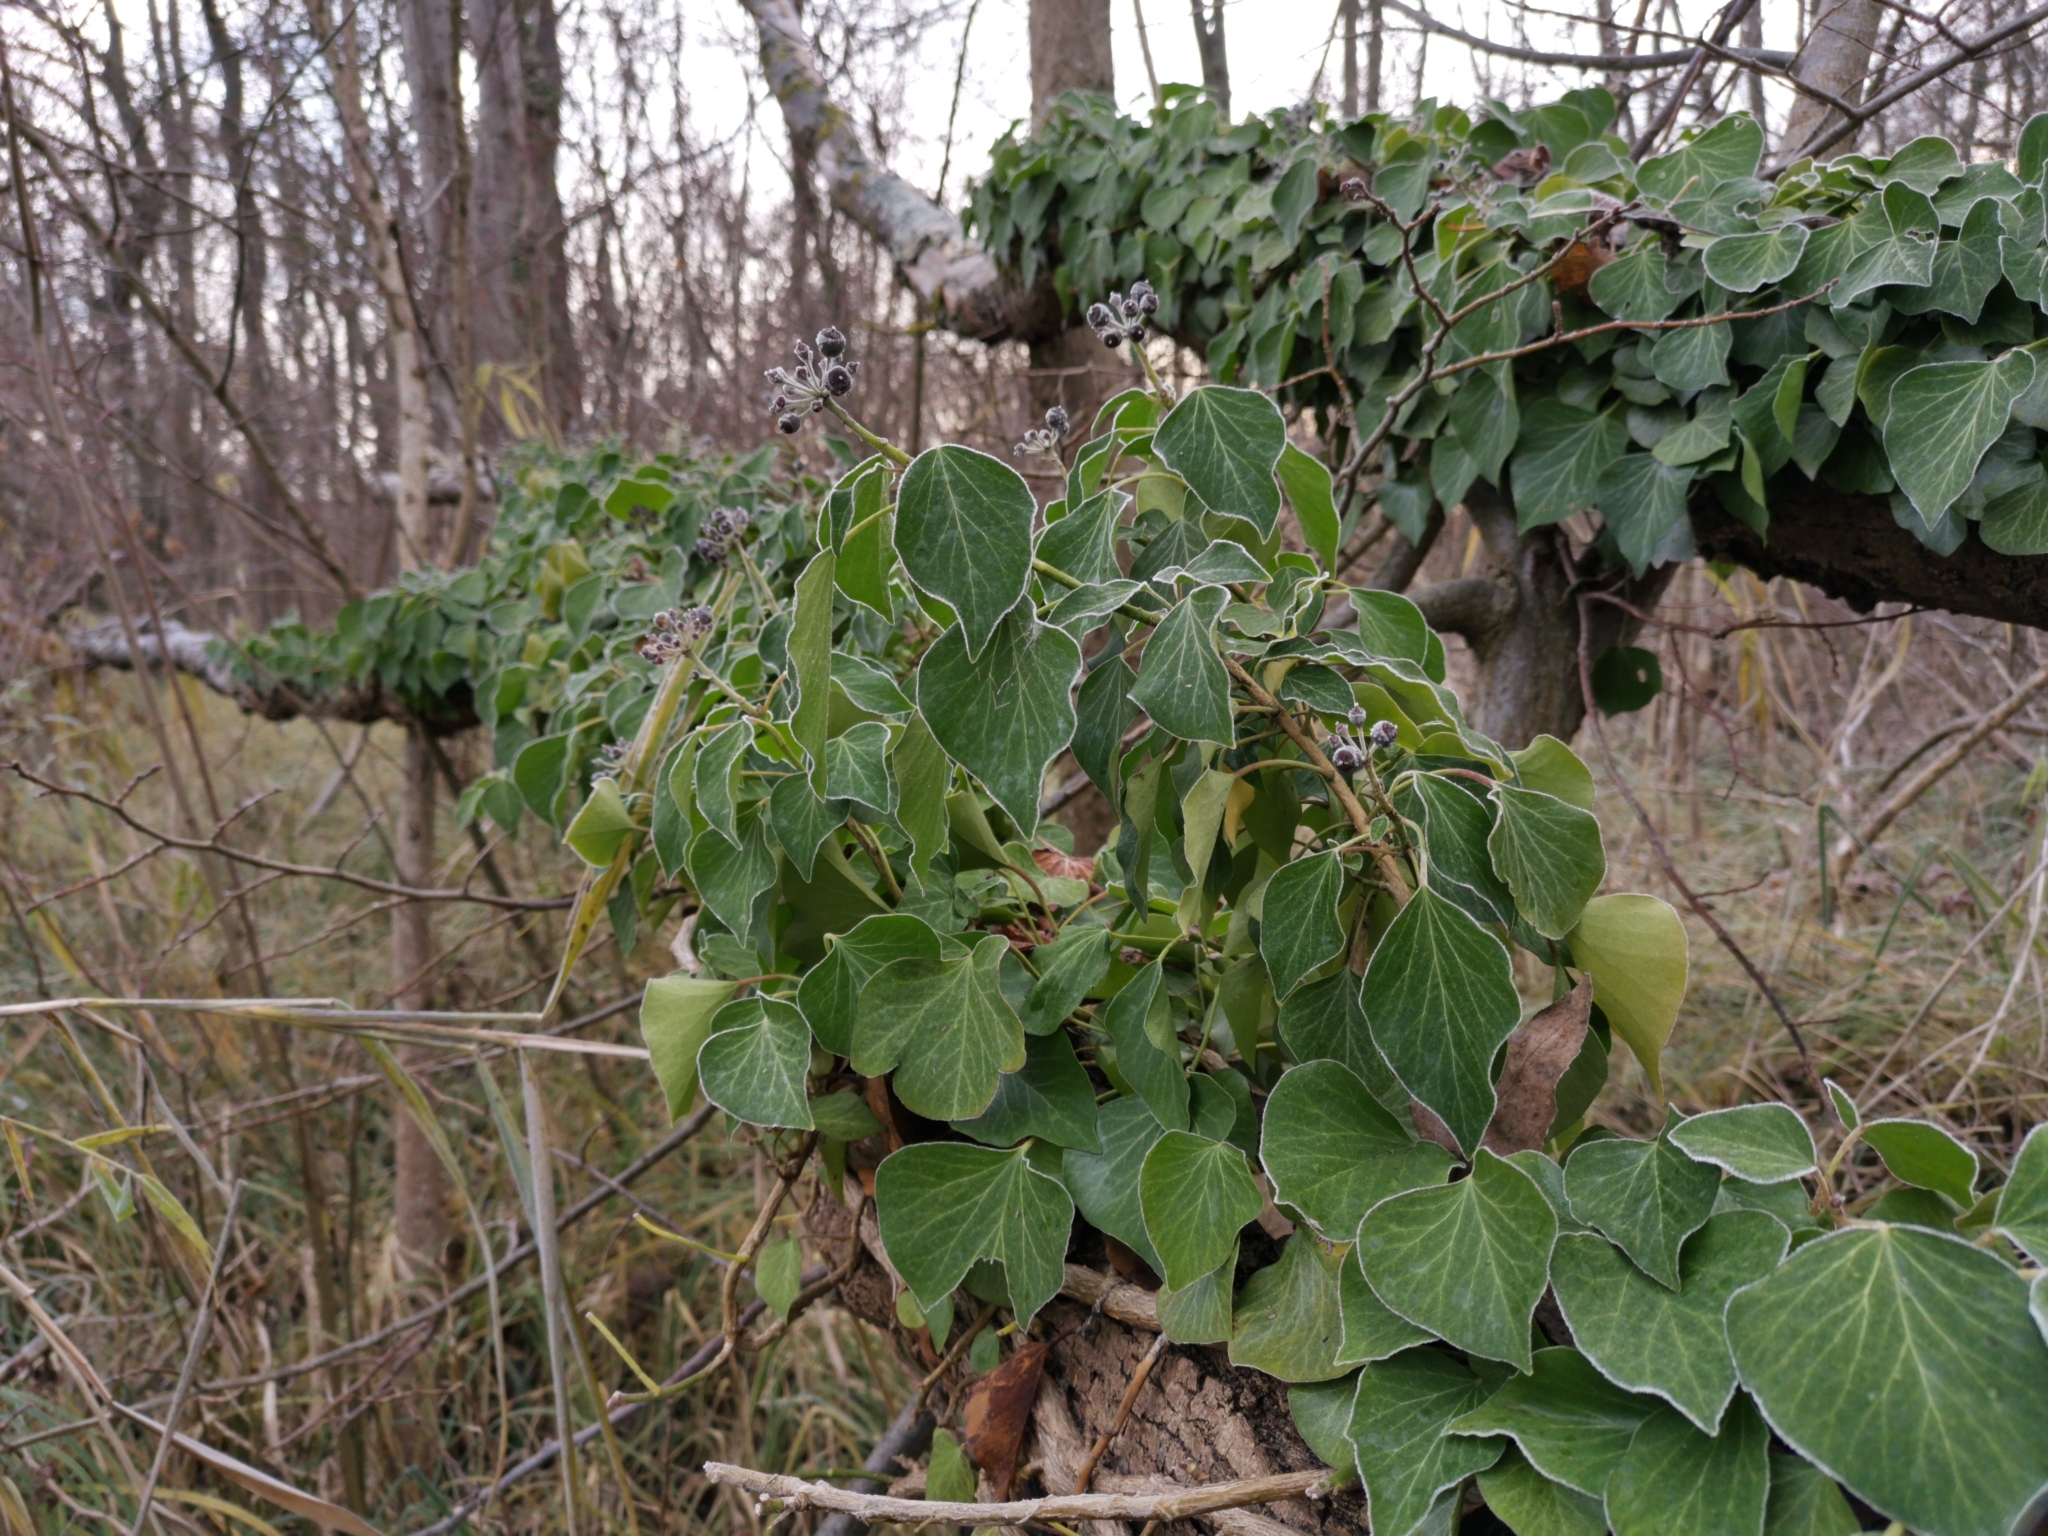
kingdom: Plantae
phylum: Tracheophyta
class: Magnoliopsida
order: Apiales
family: Araliaceae
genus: Hedera
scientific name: Hedera helix
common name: Ivy
